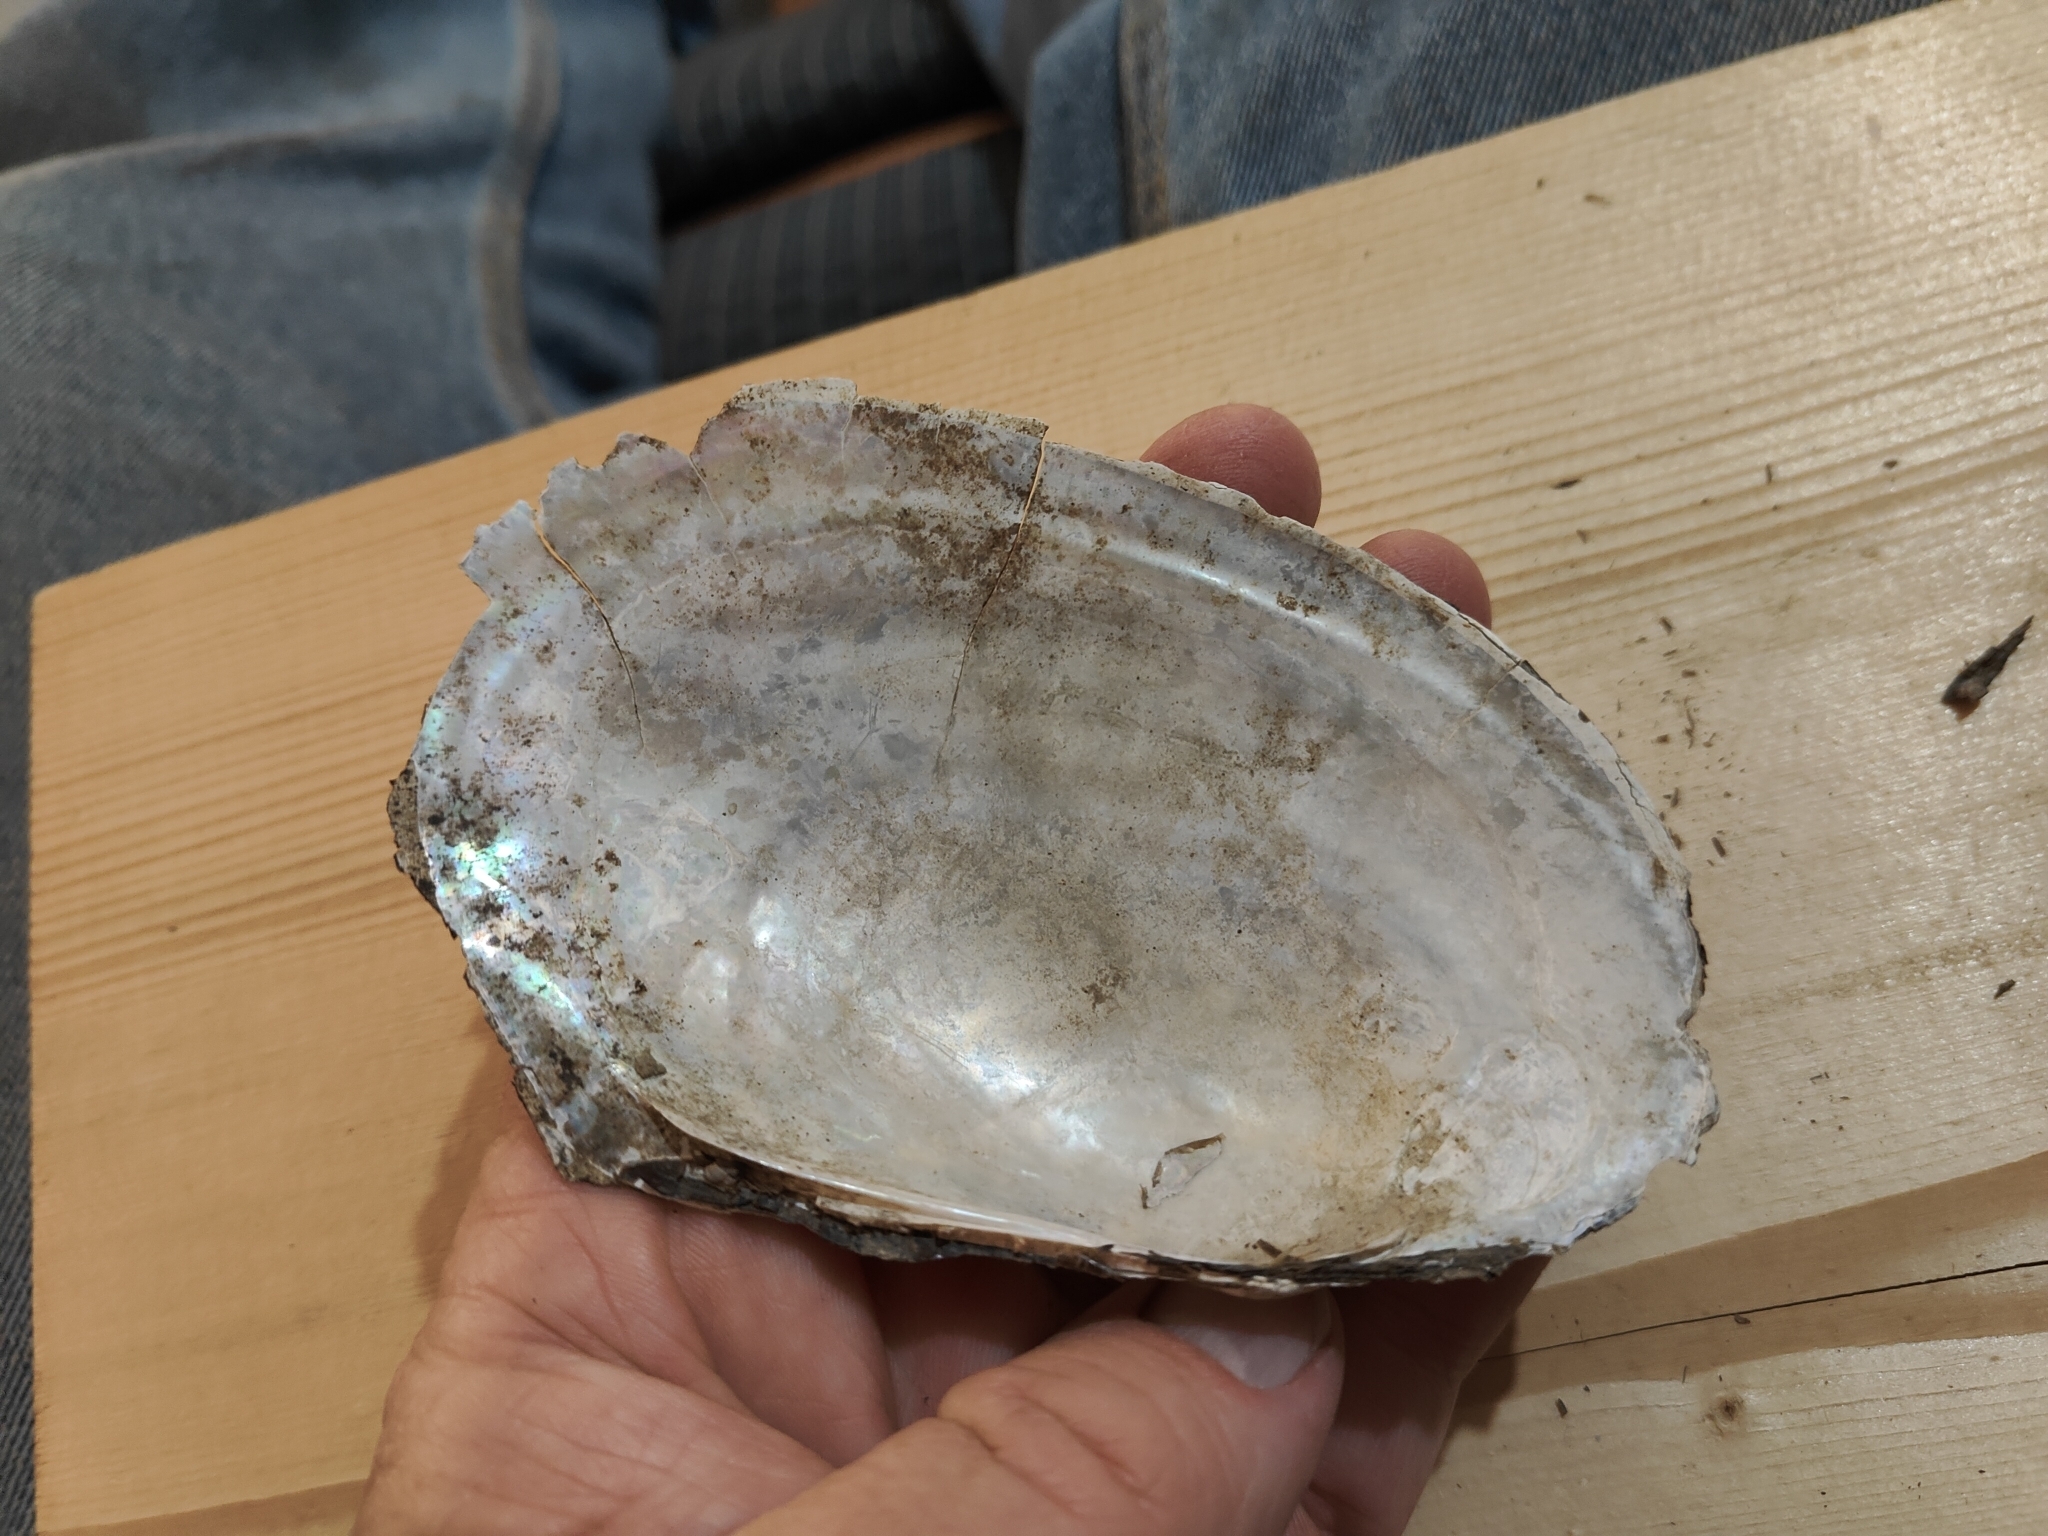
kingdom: Animalia
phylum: Mollusca
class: Bivalvia
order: Unionida
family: Unionidae
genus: Potamilus
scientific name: Potamilus fragilis
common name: Fragile papershell
